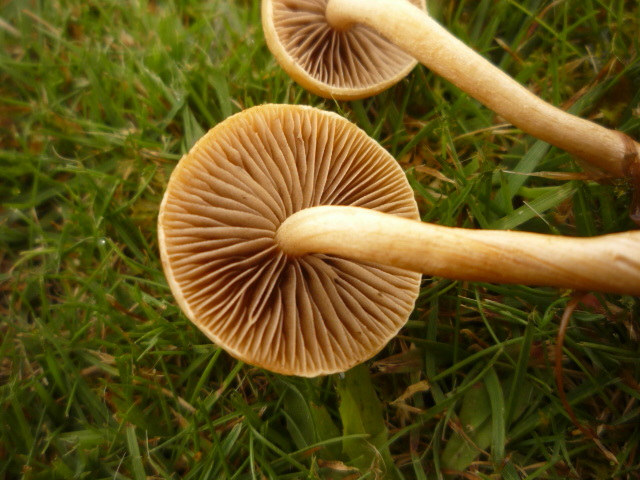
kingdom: Fungi
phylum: Basidiomycota
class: Agaricomycetes
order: Agaricales
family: Strophariaceae
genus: Agrocybe
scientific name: Agrocybe pediades
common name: Common fieldcap
